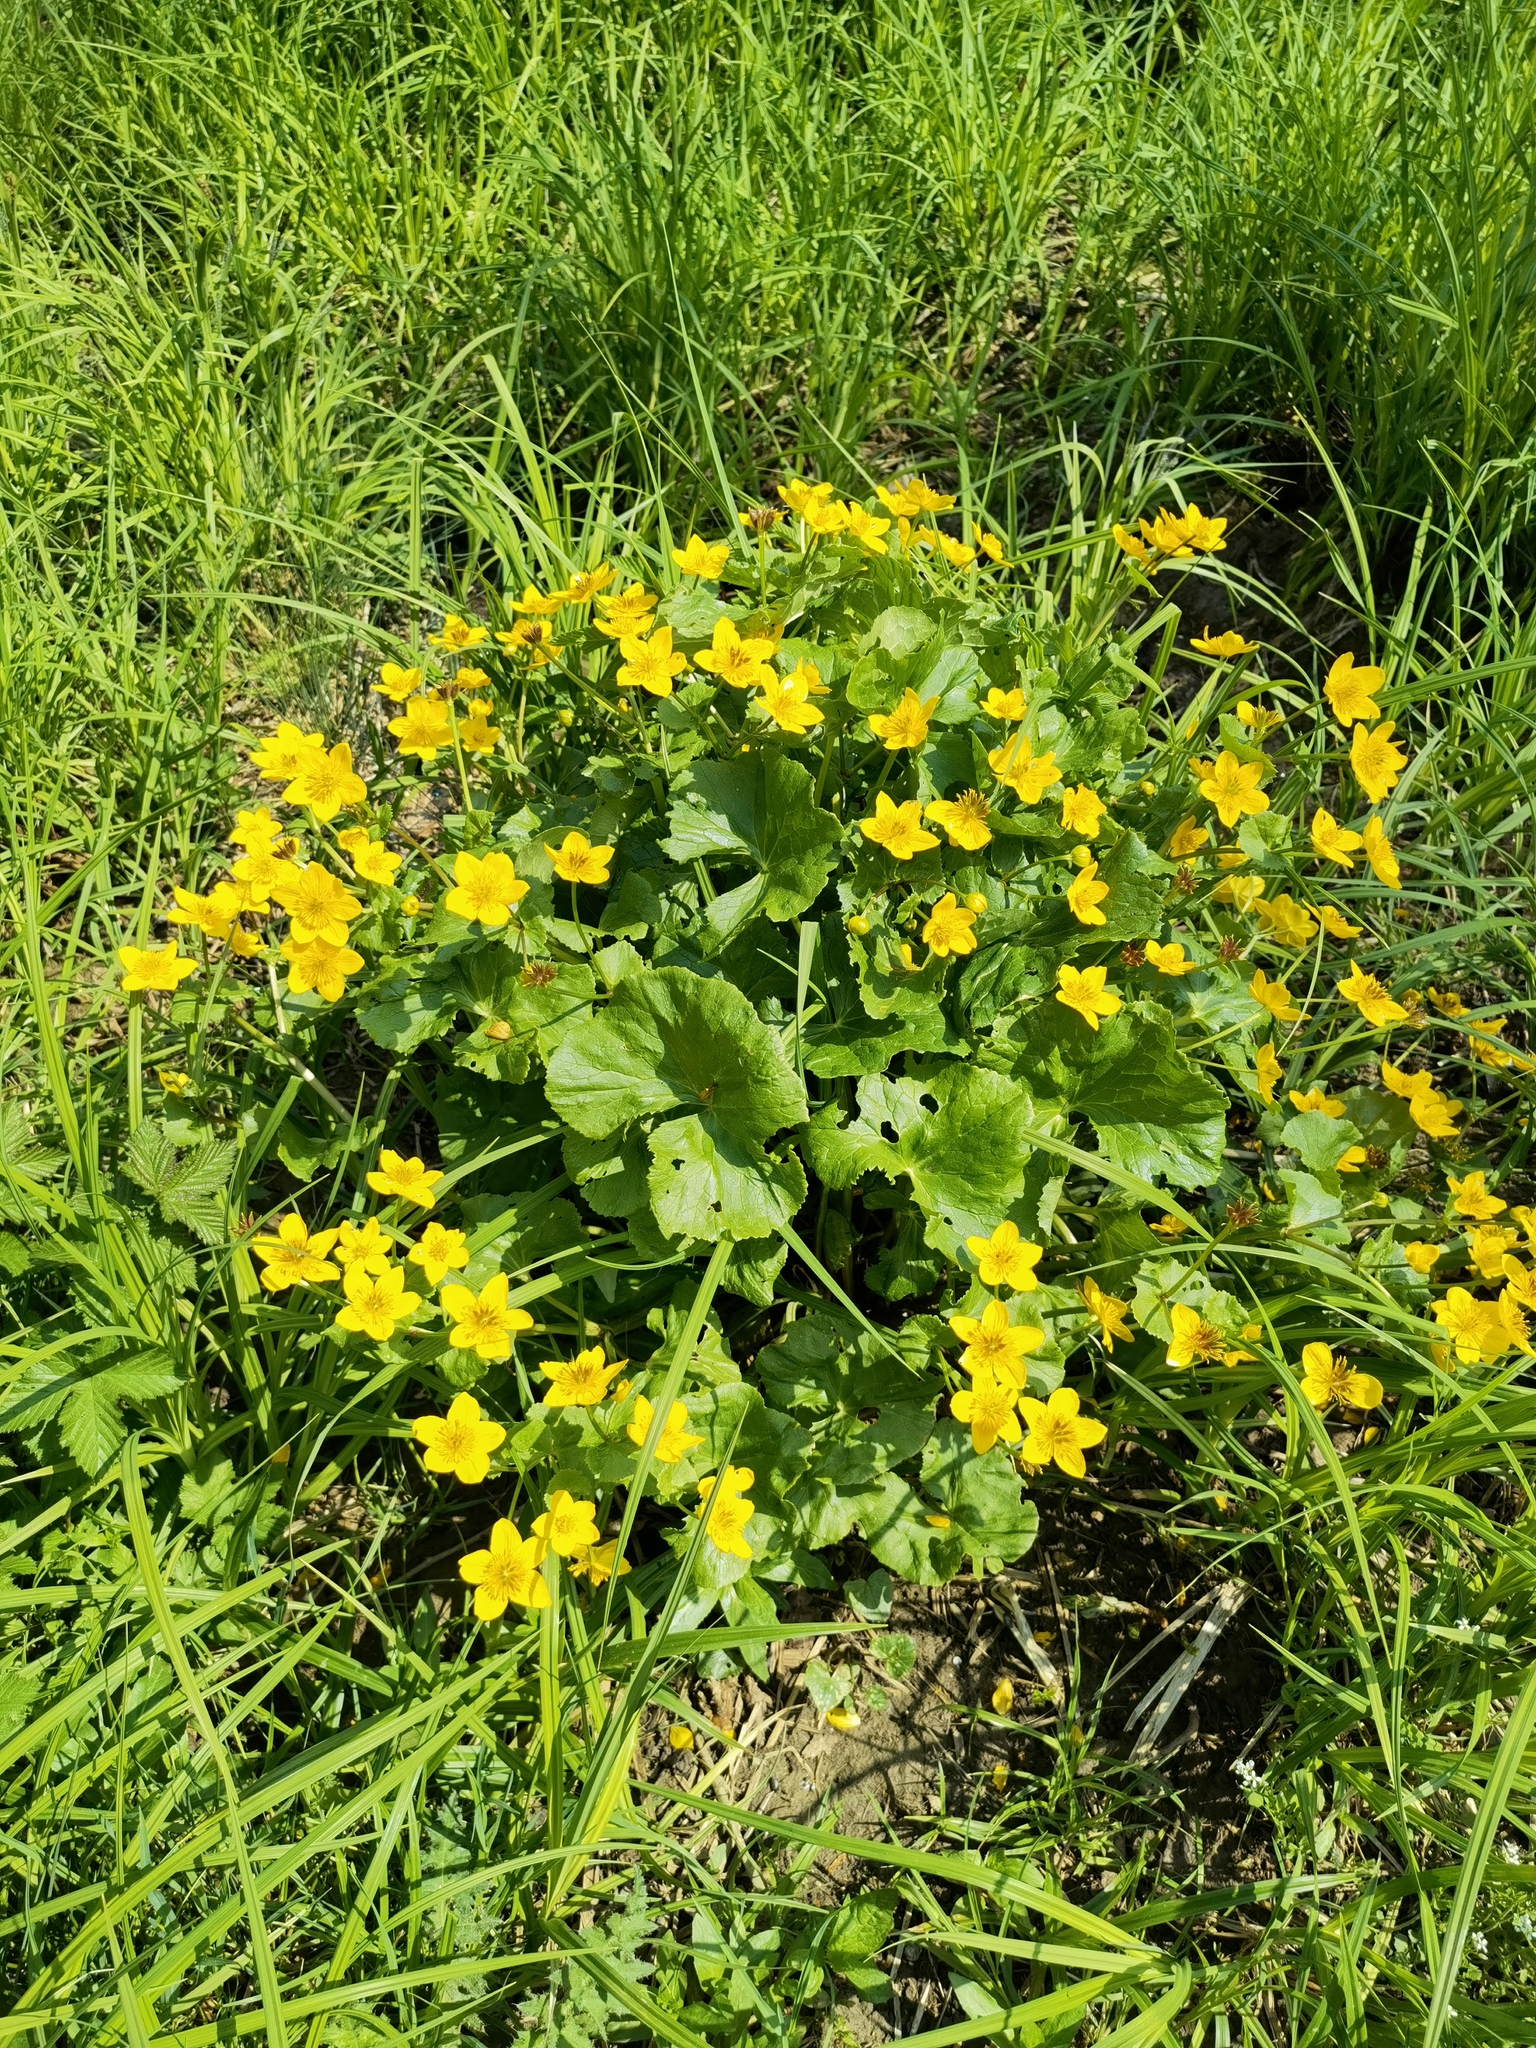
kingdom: Plantae
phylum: Tracheophyta
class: Magnoliopsida
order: Ranunculales
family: Ranunculaceae
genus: Caltha
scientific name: Caltha palustris
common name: Marsh marigold
